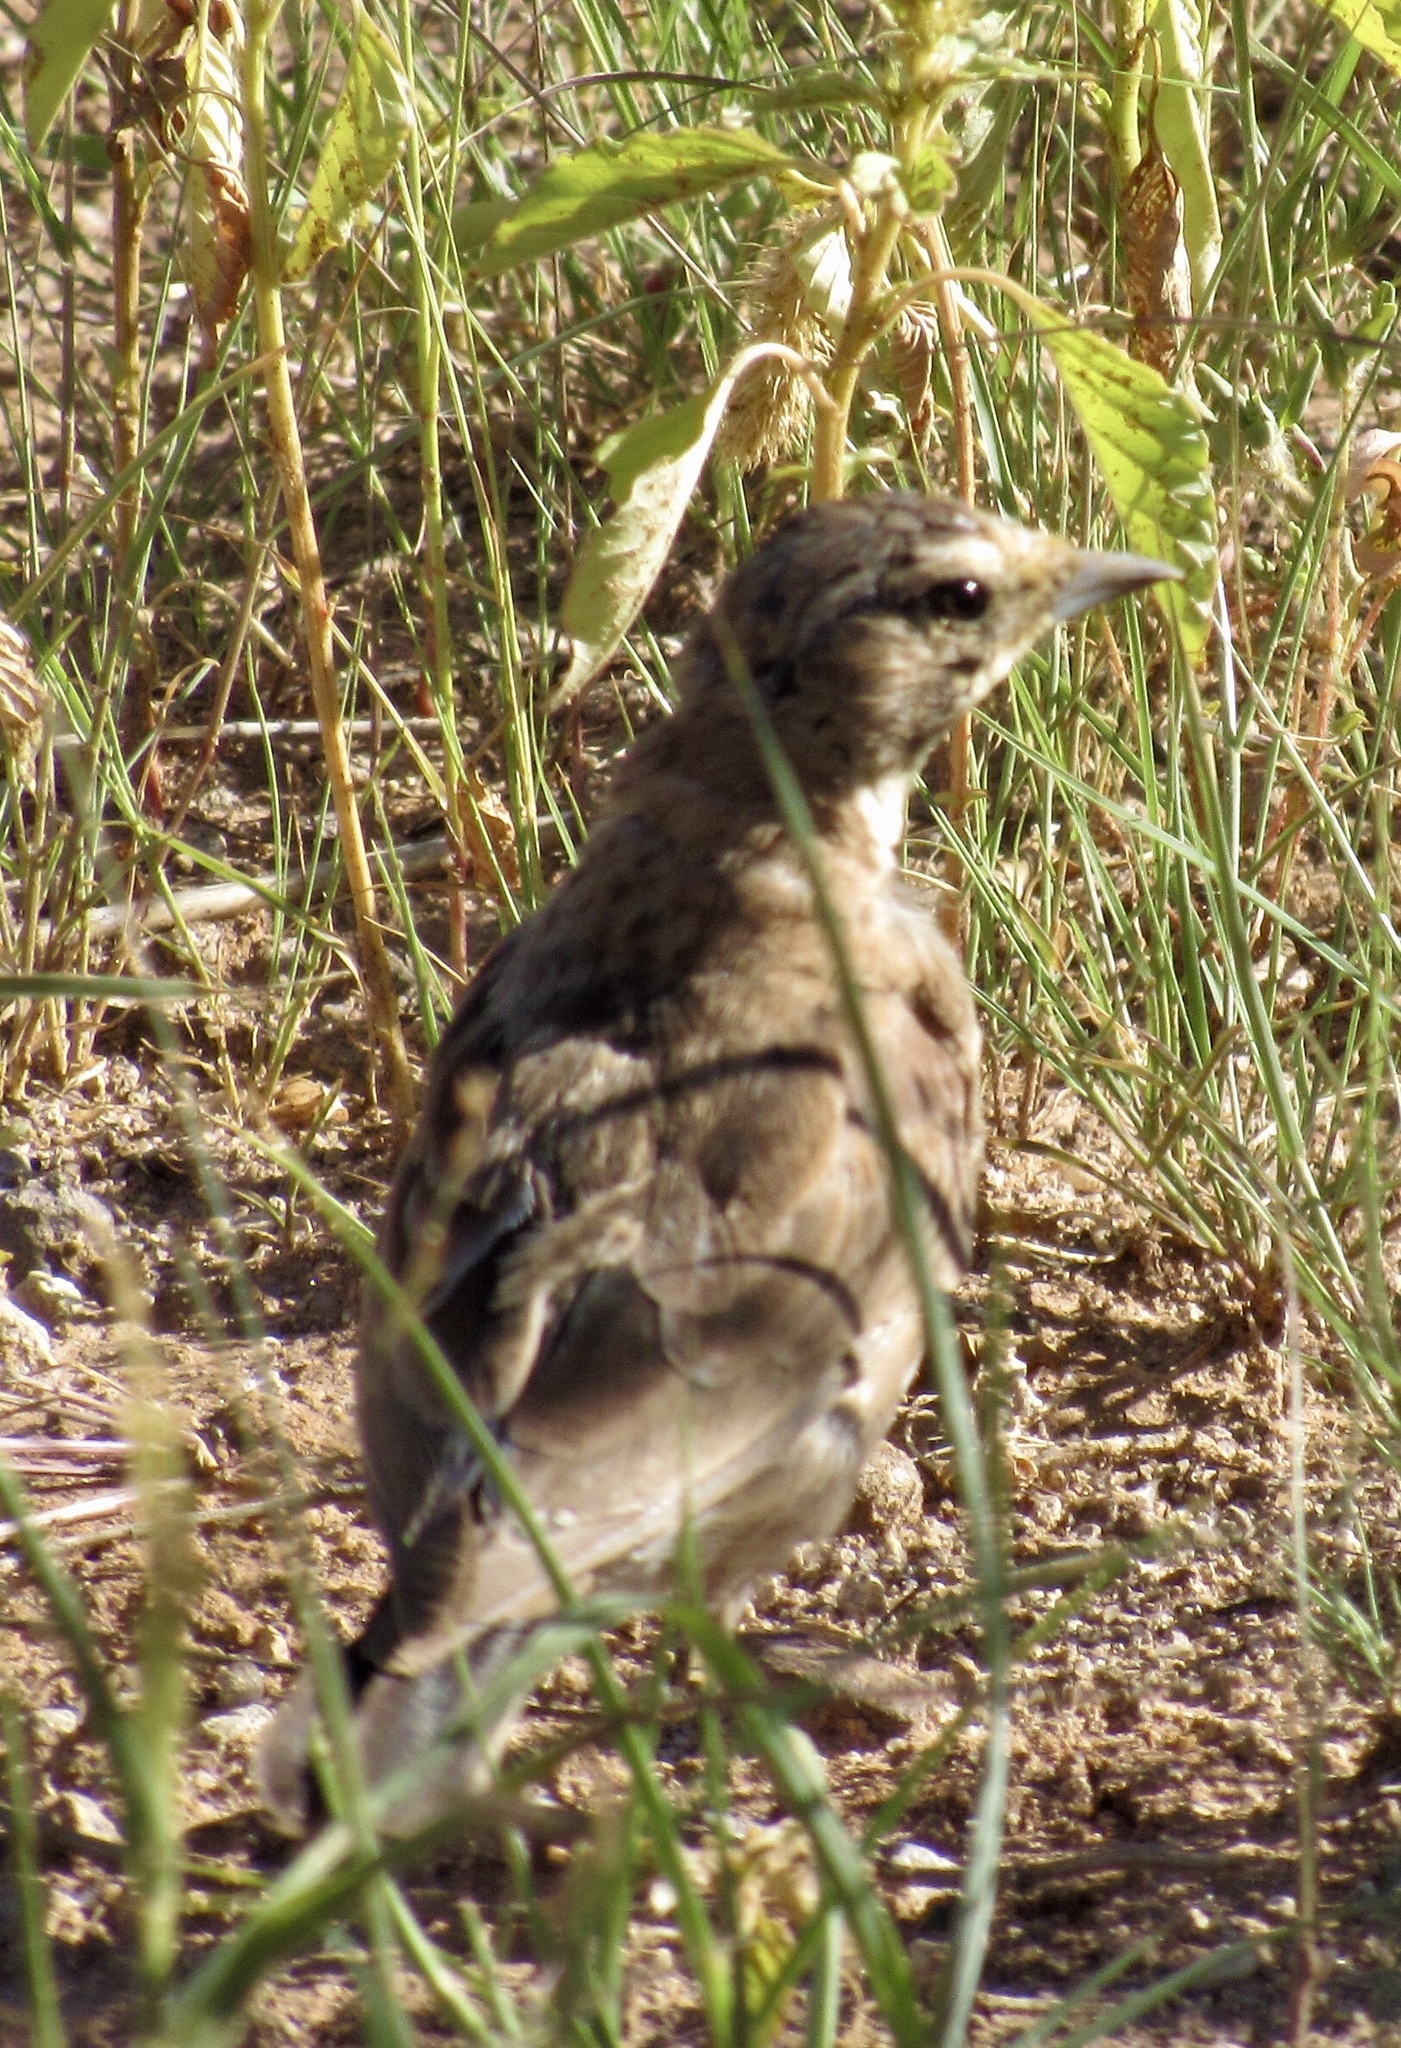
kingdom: Animalia
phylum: Chordata
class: Aves
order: Passeriformes
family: Alaudidae
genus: Eremophila
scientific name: Eremophila alpestris
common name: Horned lark
